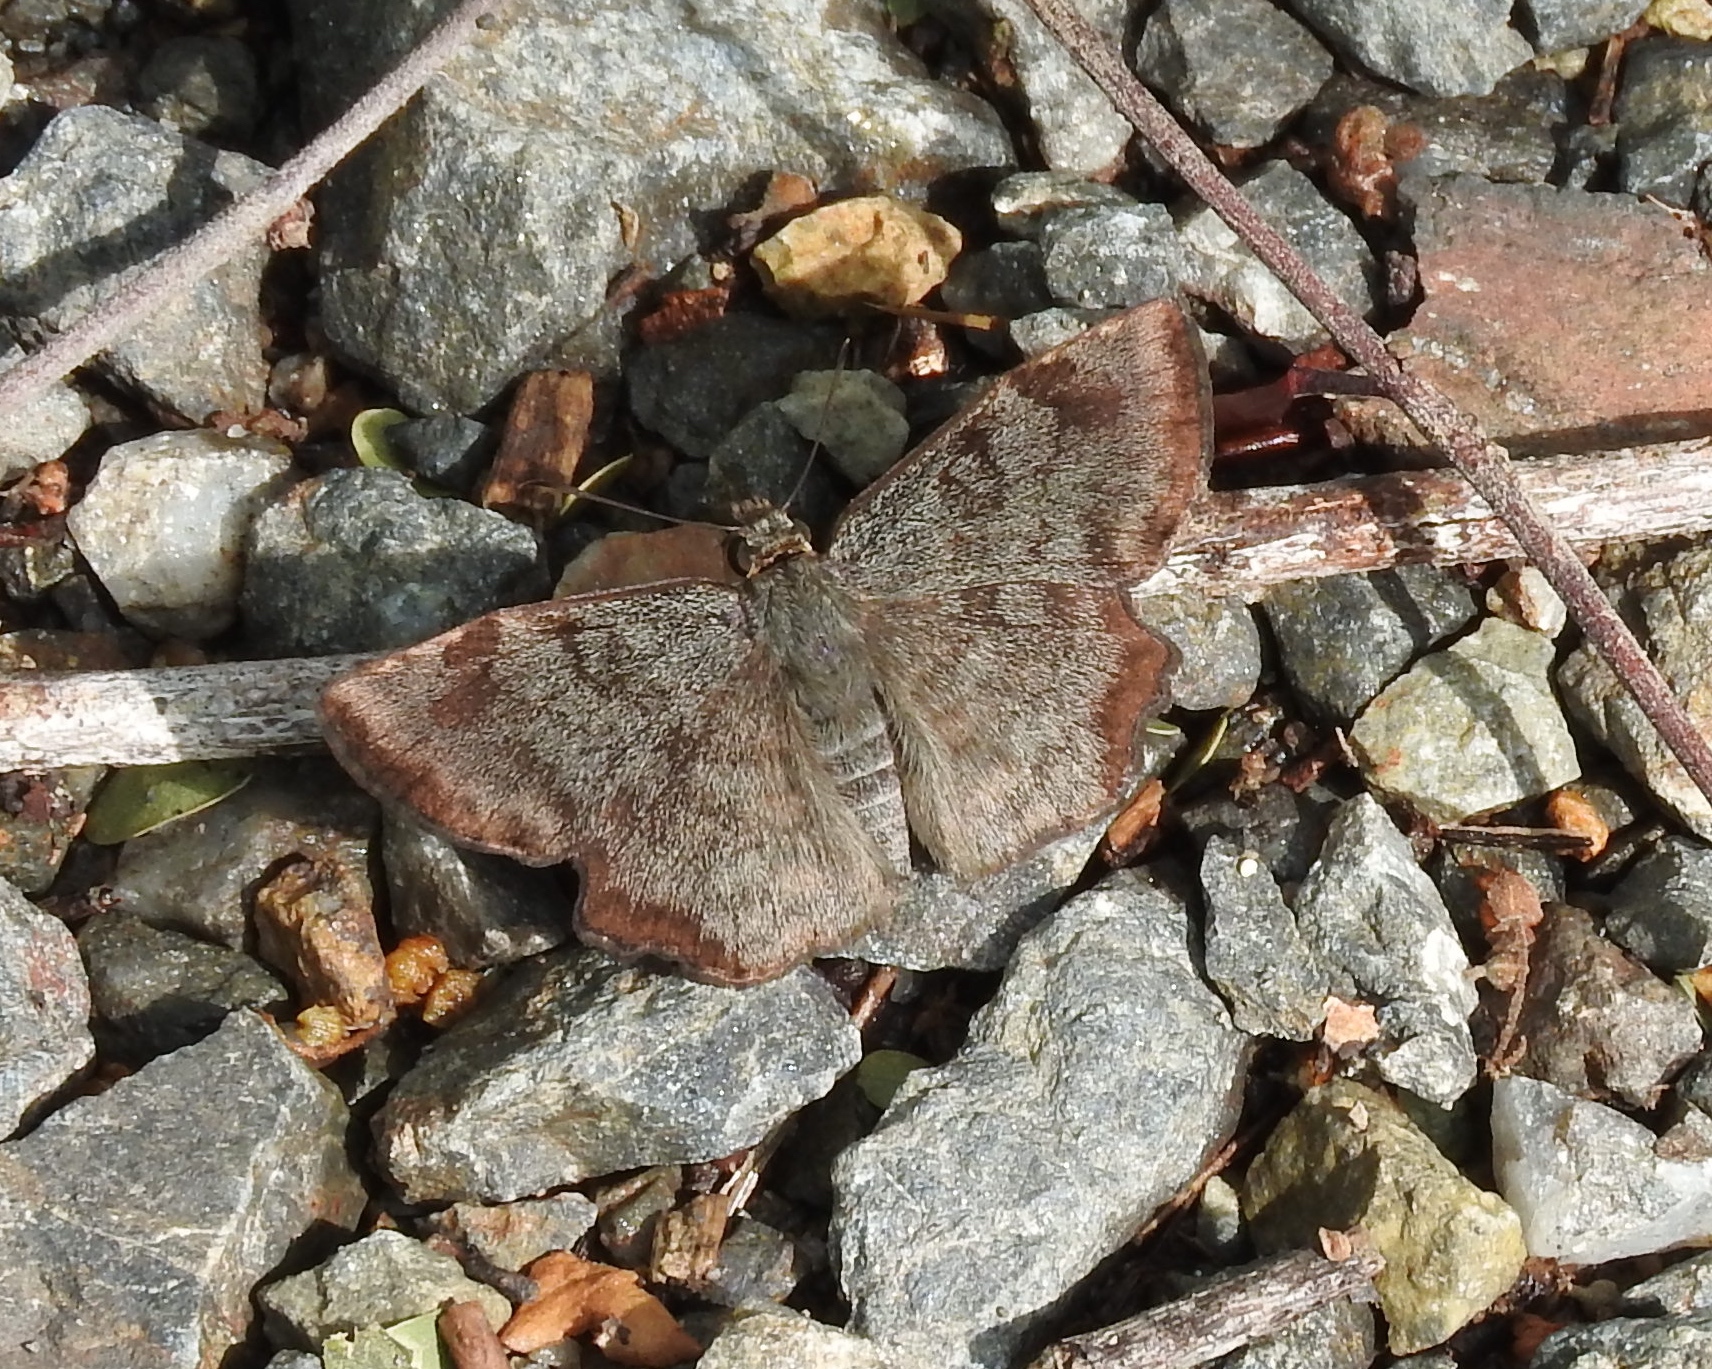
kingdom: Animalia
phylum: Arthropoda
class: Insecta
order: Lepidoptera
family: Hesperiidae
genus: Antigonus
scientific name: Antigonus erosus
